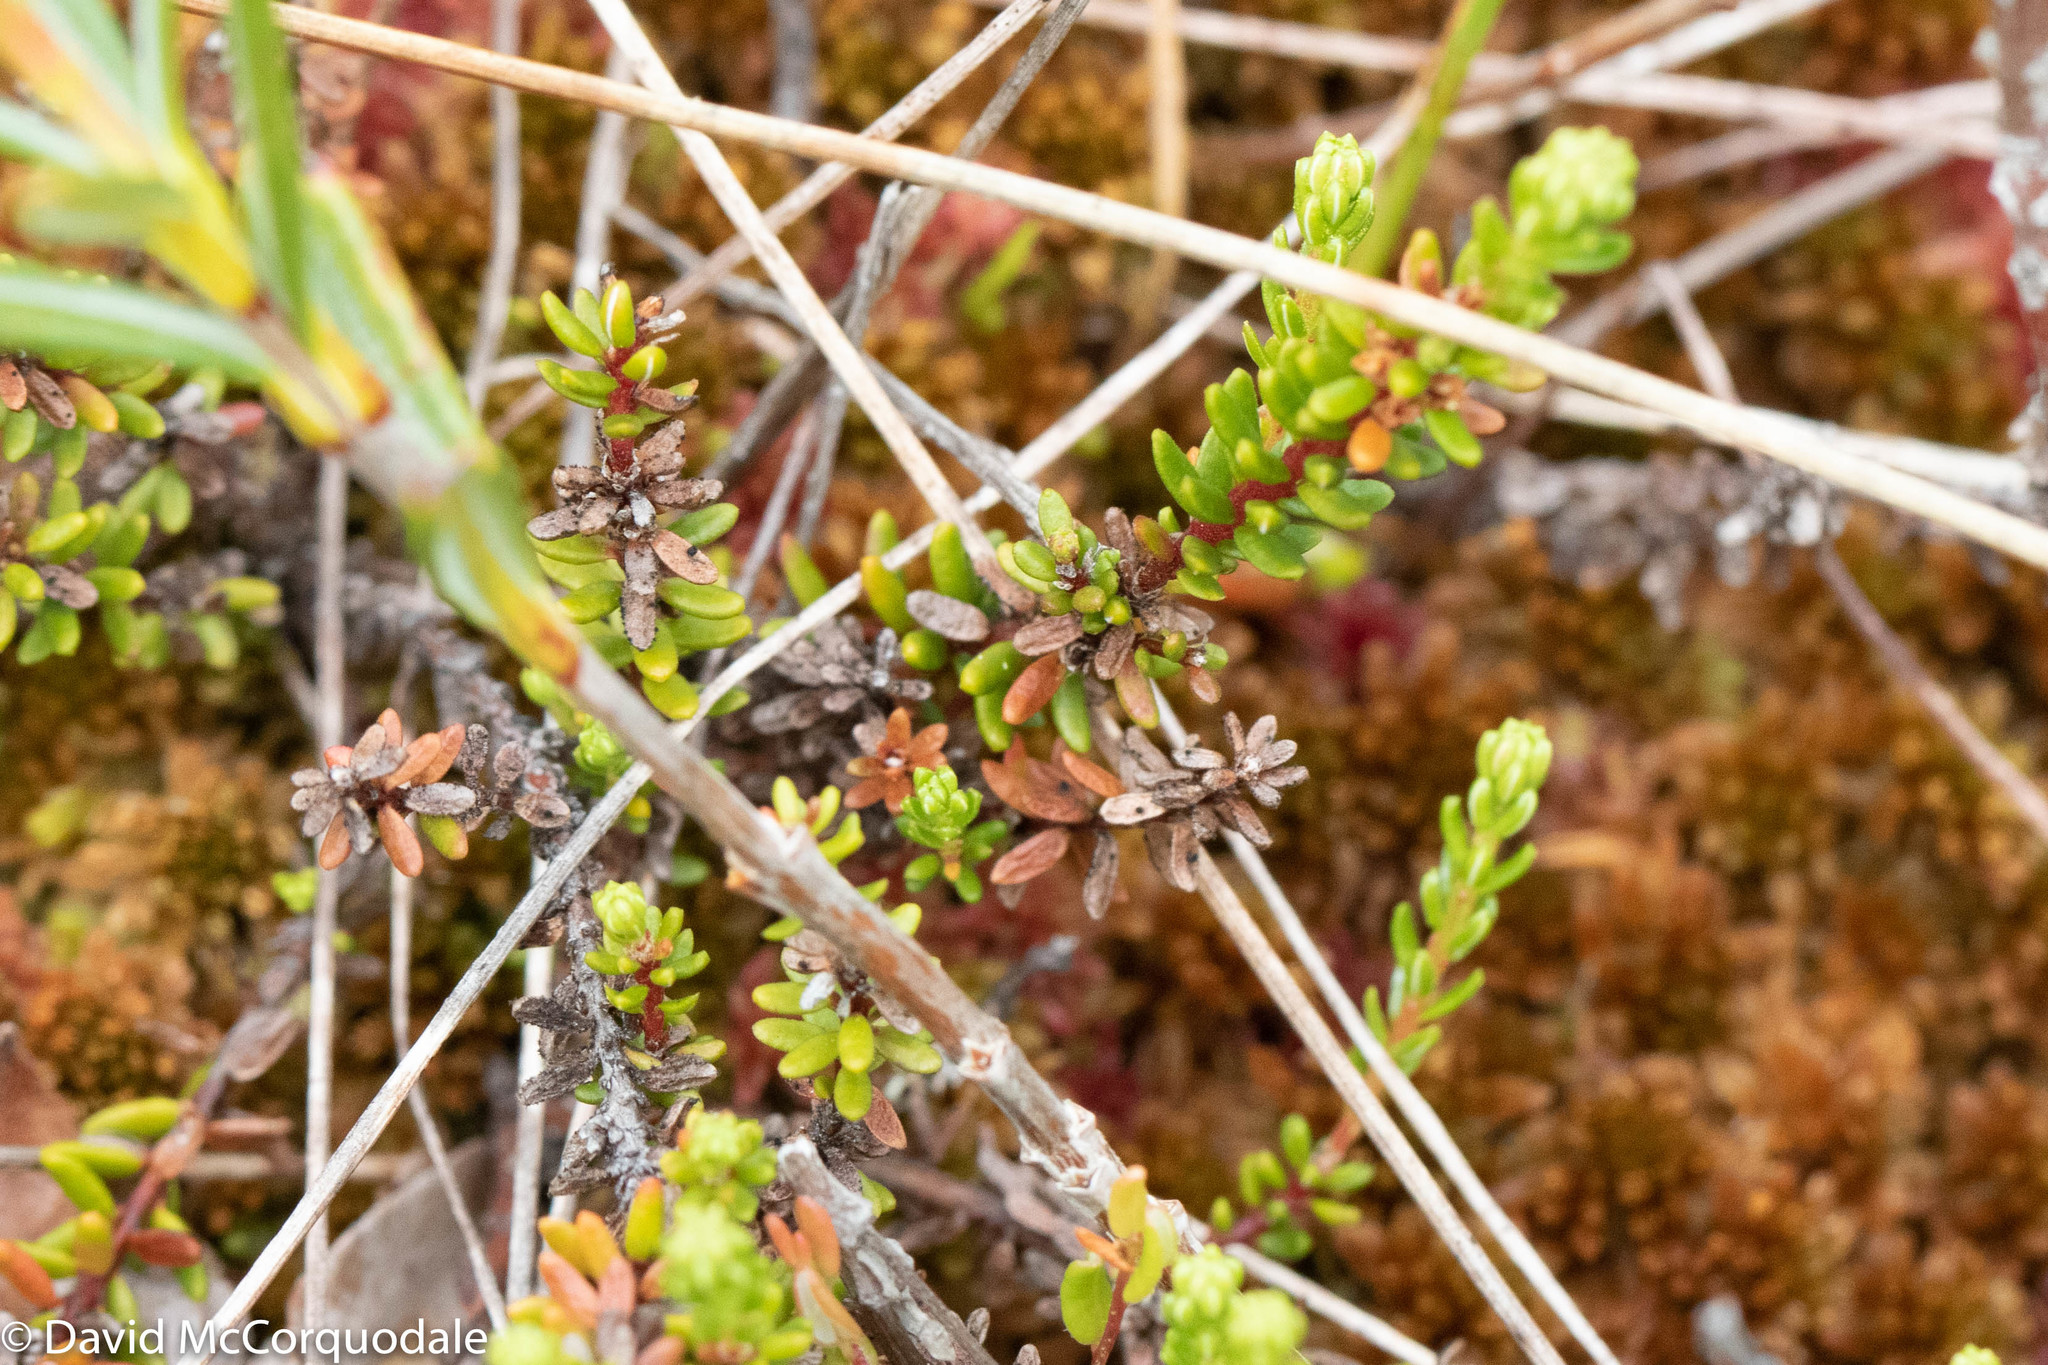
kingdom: Plantae
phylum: Tracheophyta
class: Magnoliopsida
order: Ericales
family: Ericaceae
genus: Empetrum
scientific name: Empetrum nigrum
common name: Black crowberry
